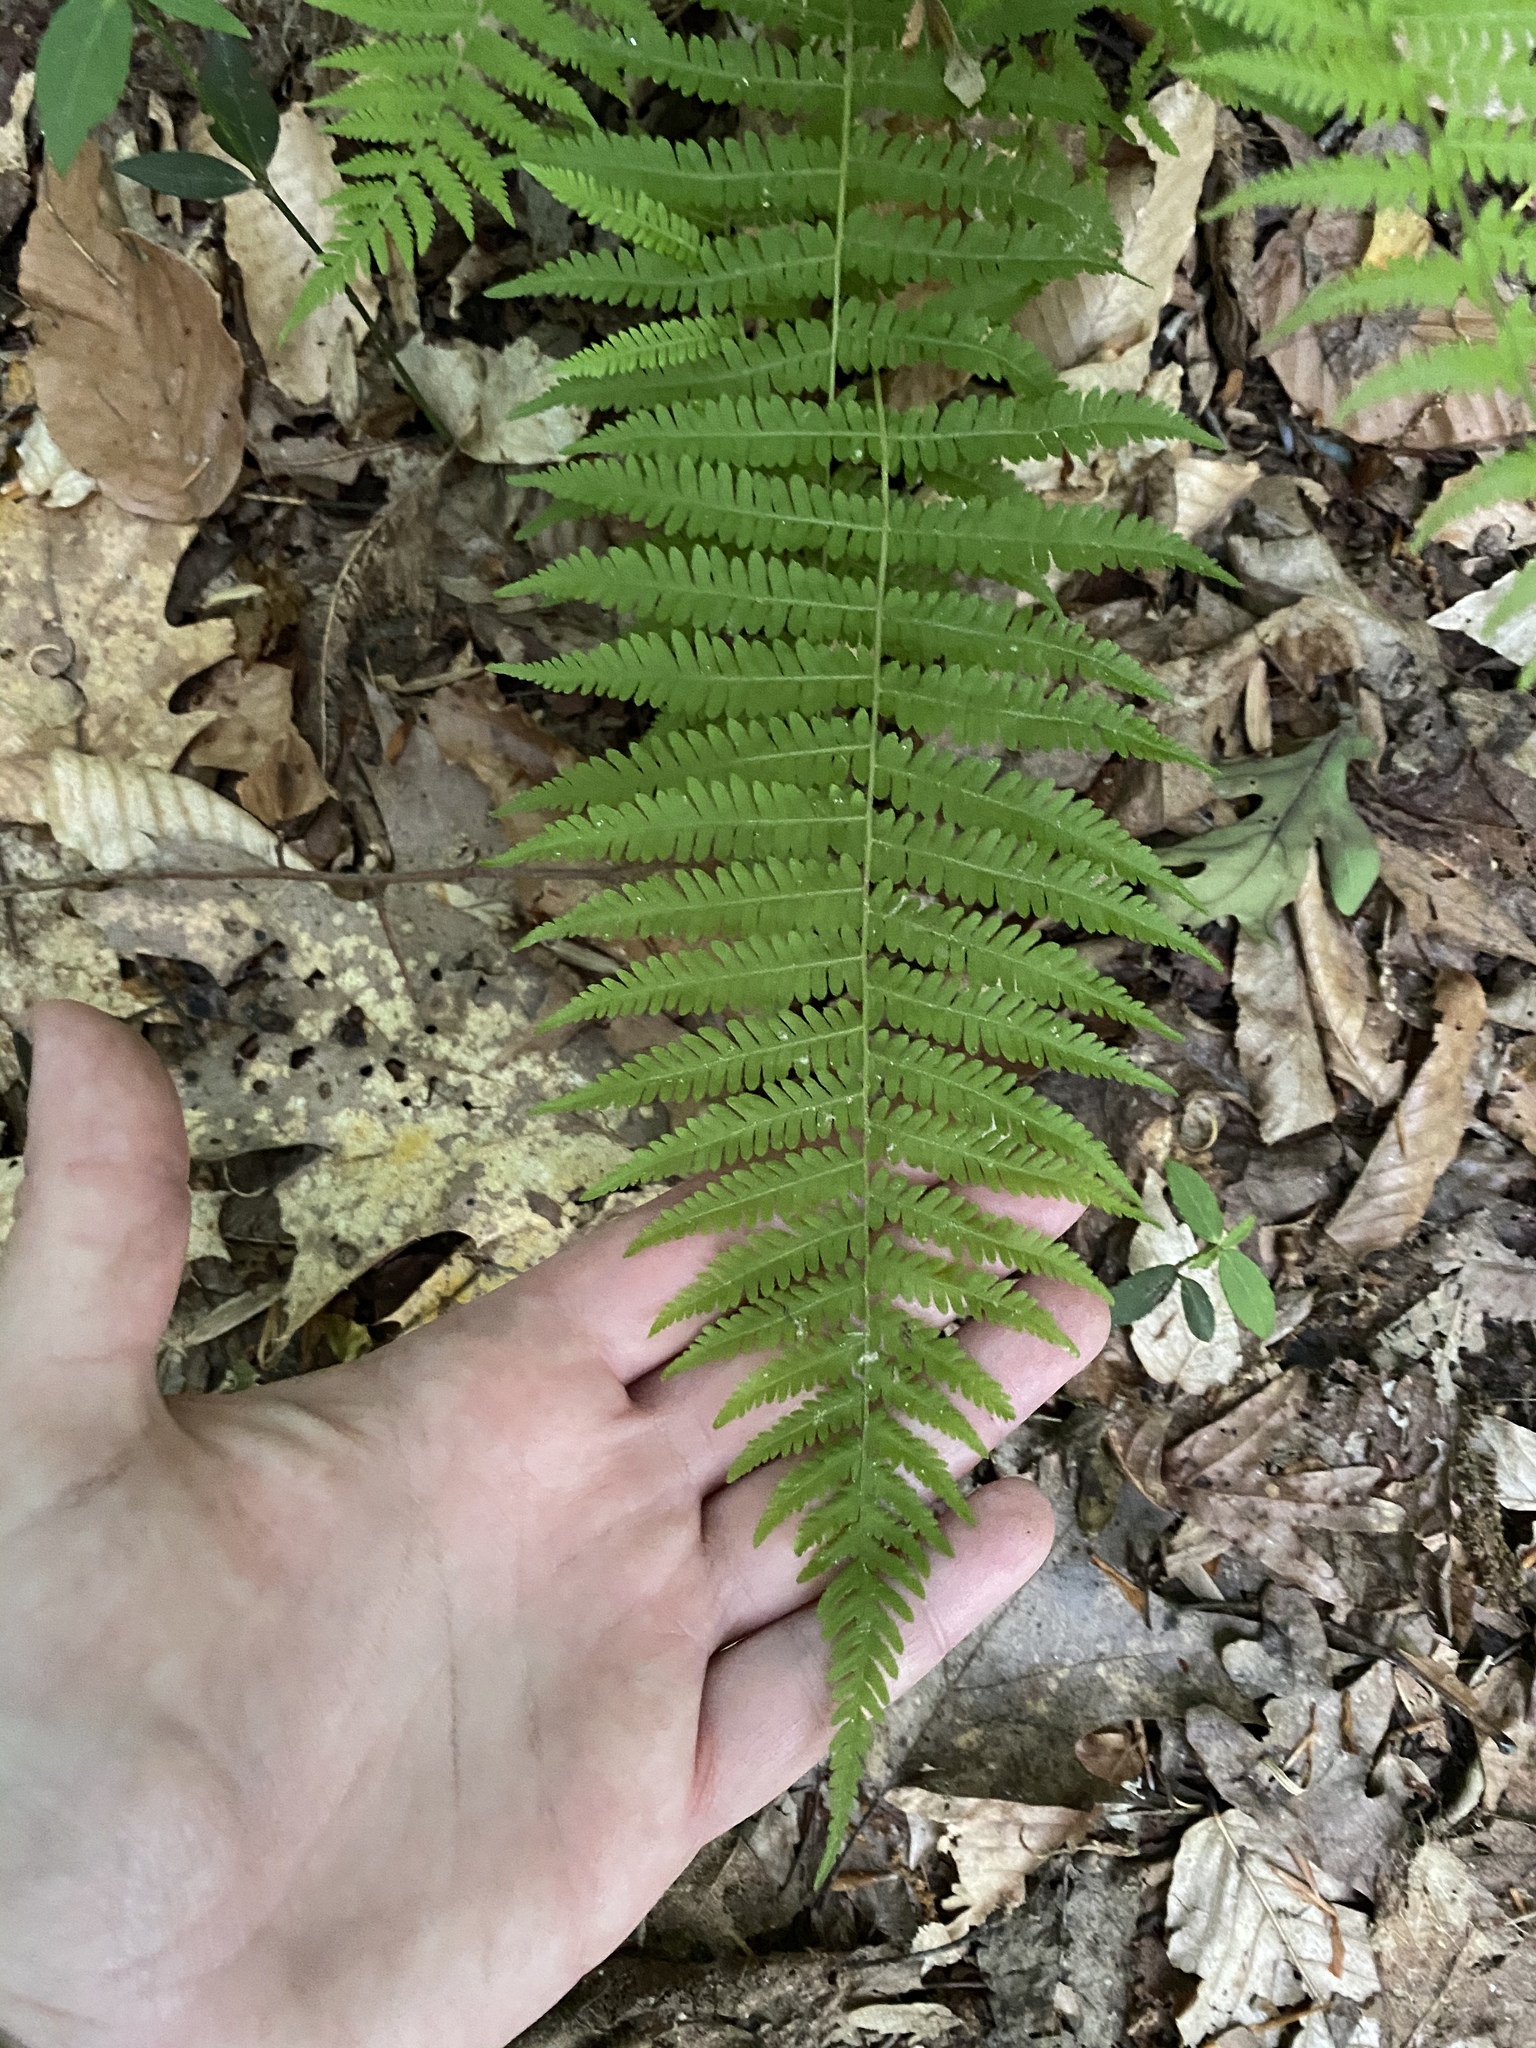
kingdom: Plantae
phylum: Tracheophyta
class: Polypodiopsida
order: Polypodiales
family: Thelypteridaceae
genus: Amauropelta
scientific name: Amauropelta noveboracensis
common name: New york fern
